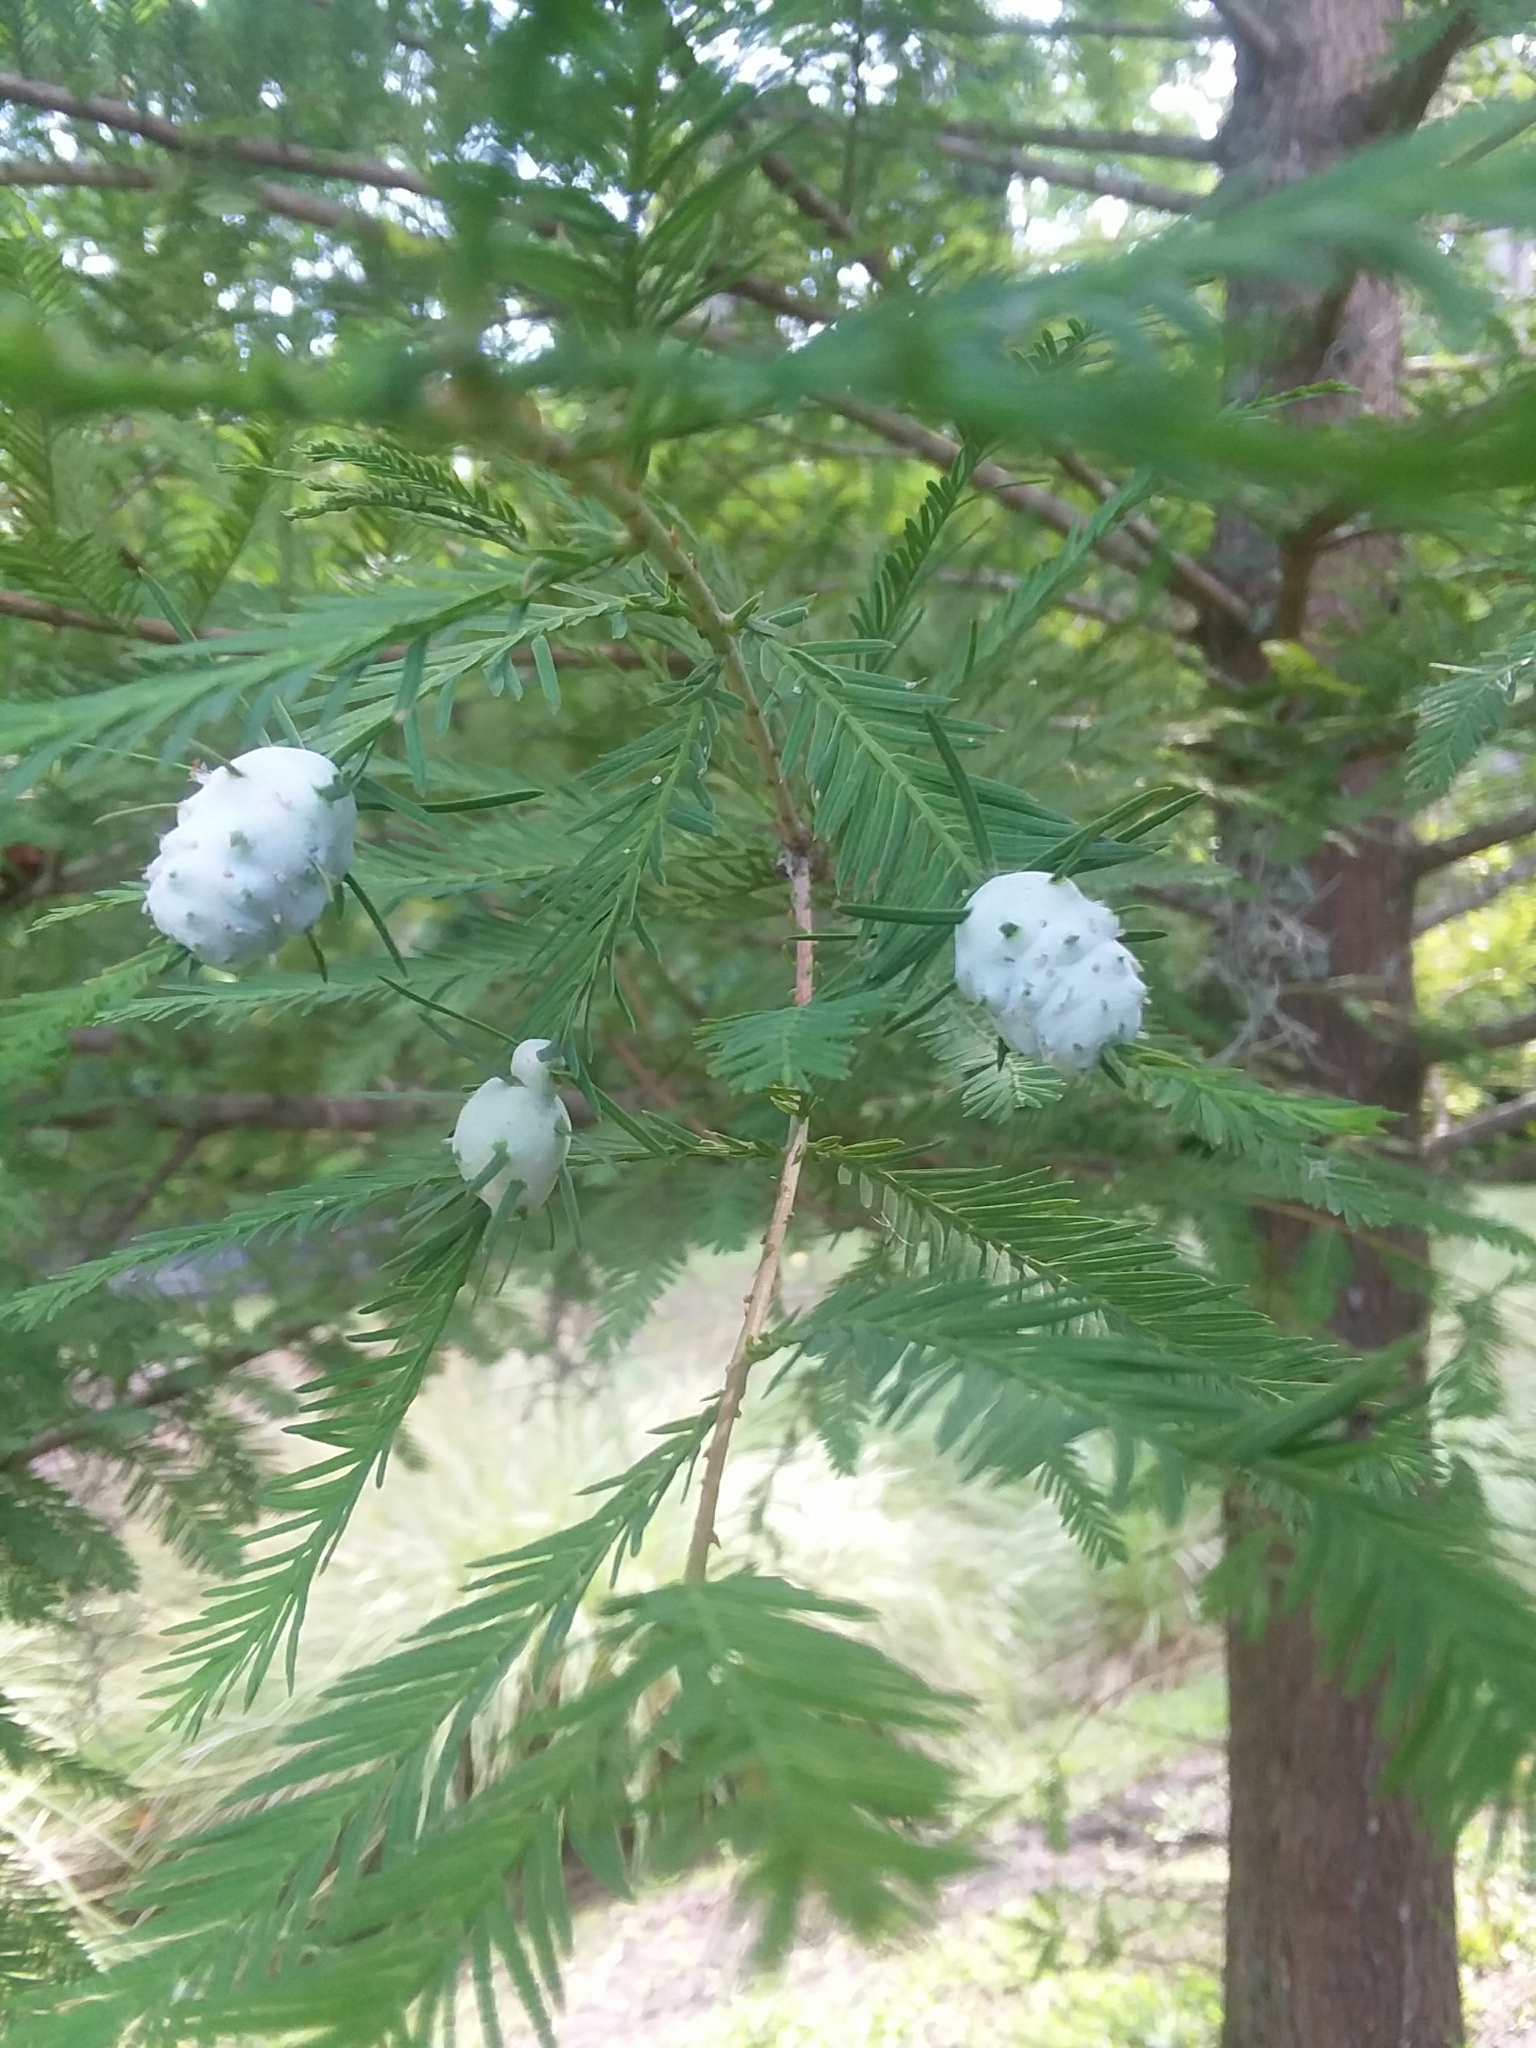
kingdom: Animalia
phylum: Arthropoda
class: Insecta
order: Diptera
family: Cecidomyiidae
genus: Taxodiomyia
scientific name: Taxodiomyia cupressiananassa
